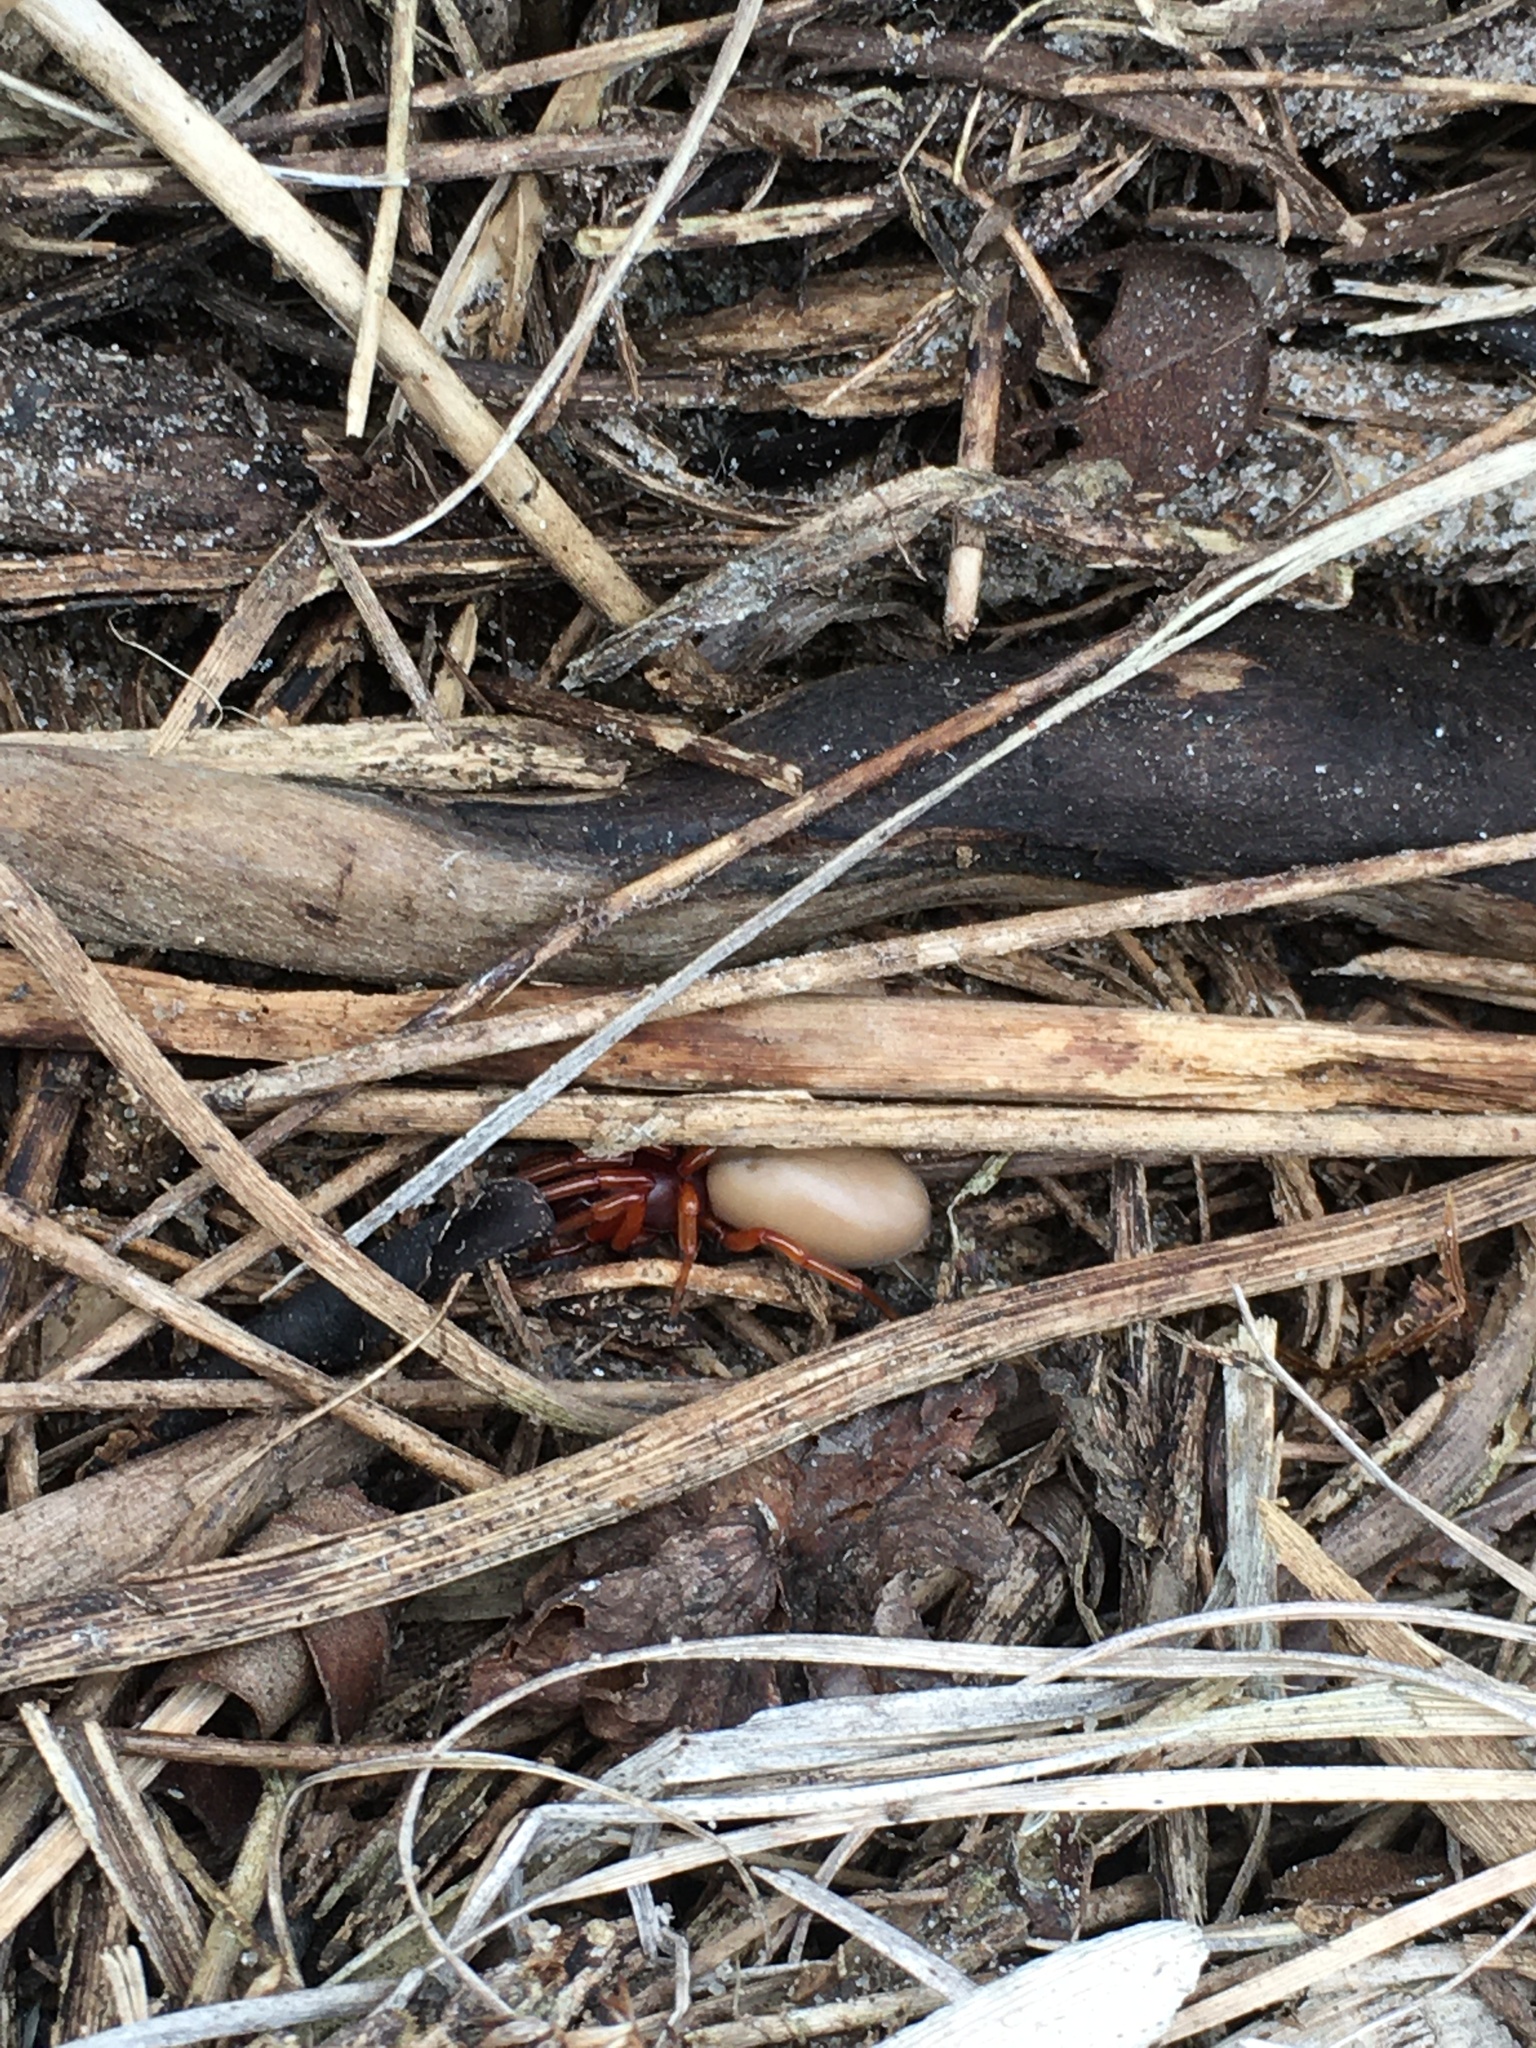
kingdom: Animalia
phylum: Arthropoda
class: Arachnida
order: Araneae
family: Dysderidae
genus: Dysdera
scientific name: Dysdera crocata
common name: Woodlouse spider
